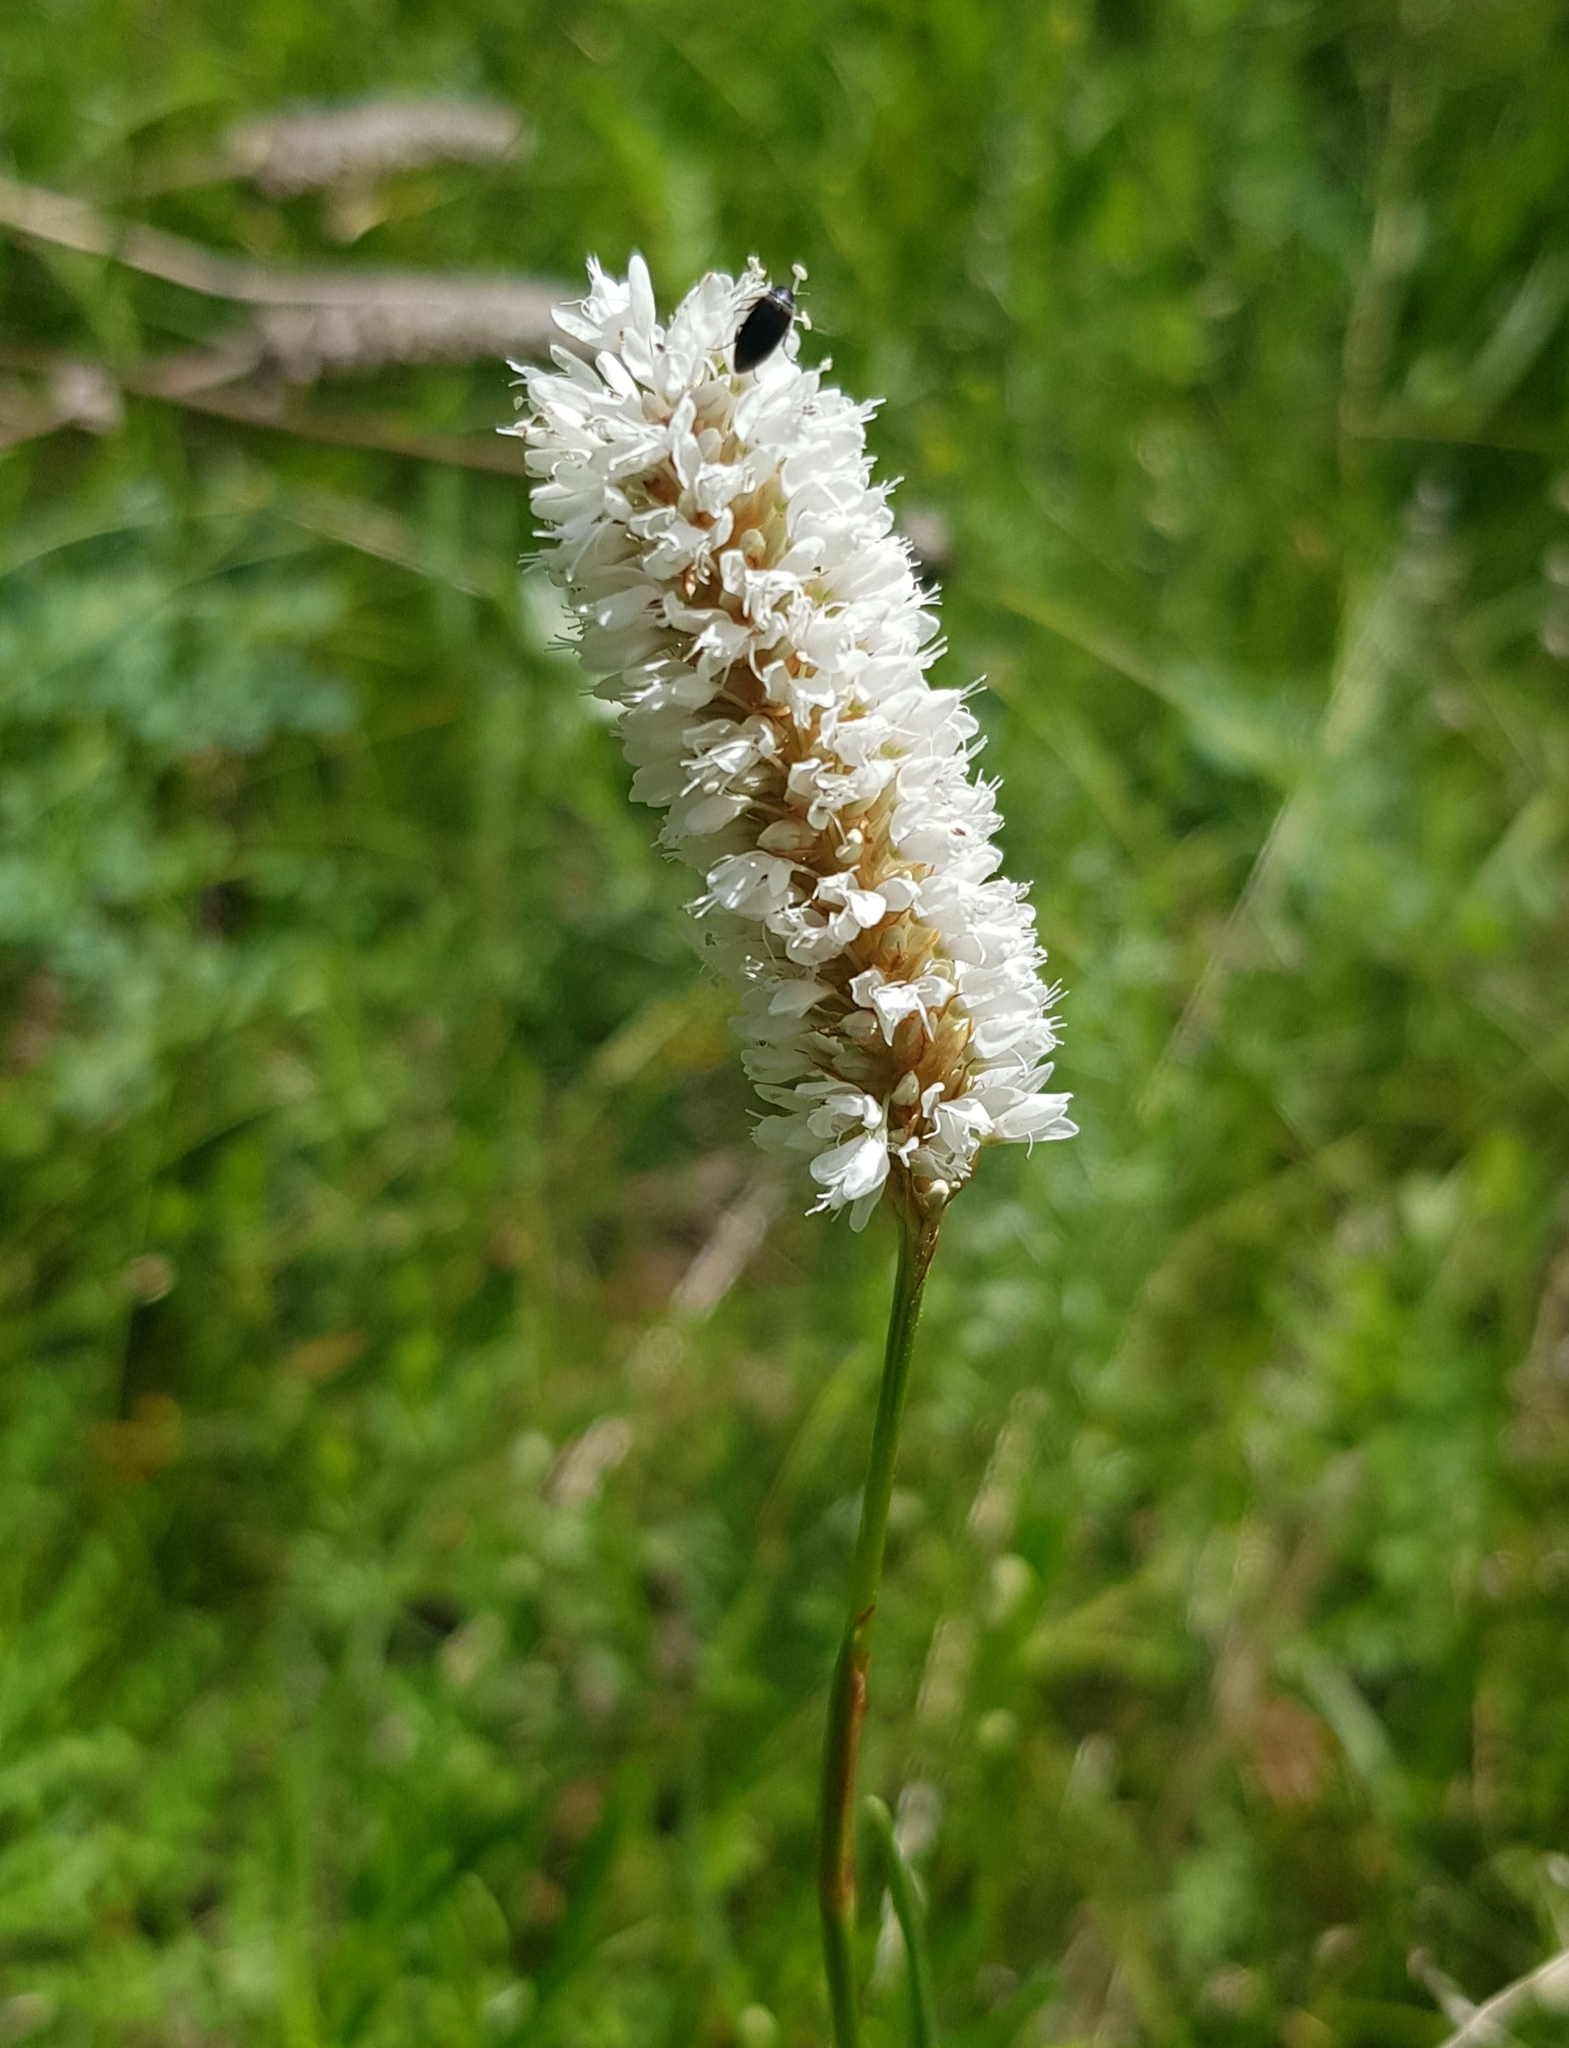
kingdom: Plantae
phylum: Tracheophyta
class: Magnoliopsida
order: Caryophyllales
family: Polygonaceae
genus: Bistorta
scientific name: Bistorta vivipara
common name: Alpine bistort
